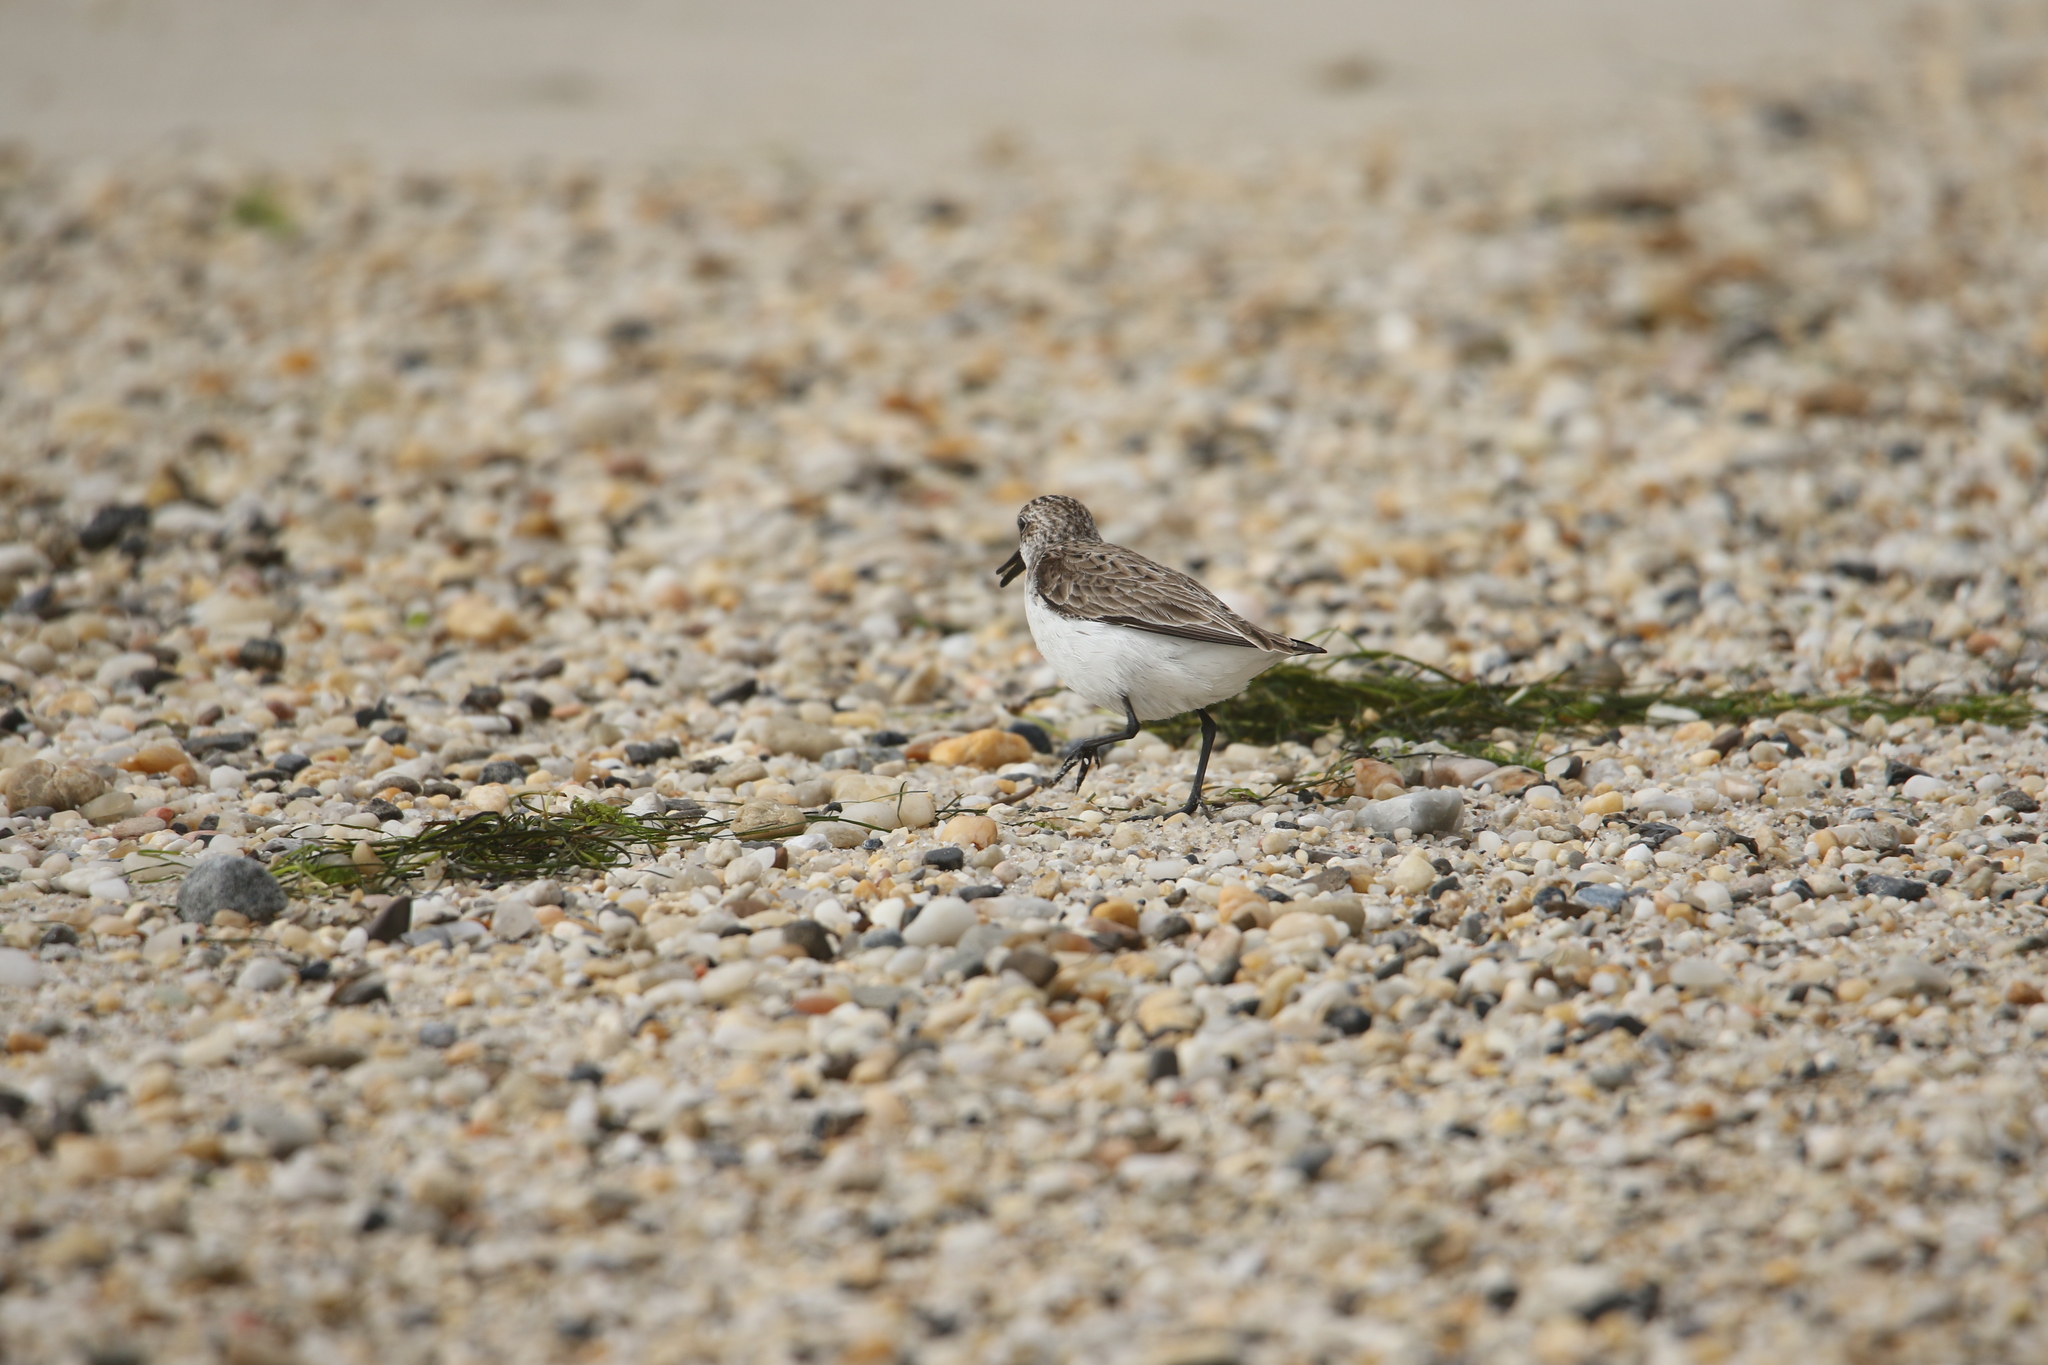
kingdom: Animalia
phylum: Chordata
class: Aves
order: Charadriiformes
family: Scolopacidae
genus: Calidris
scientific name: Calidris pusilla
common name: Semipalmated sandpiper
